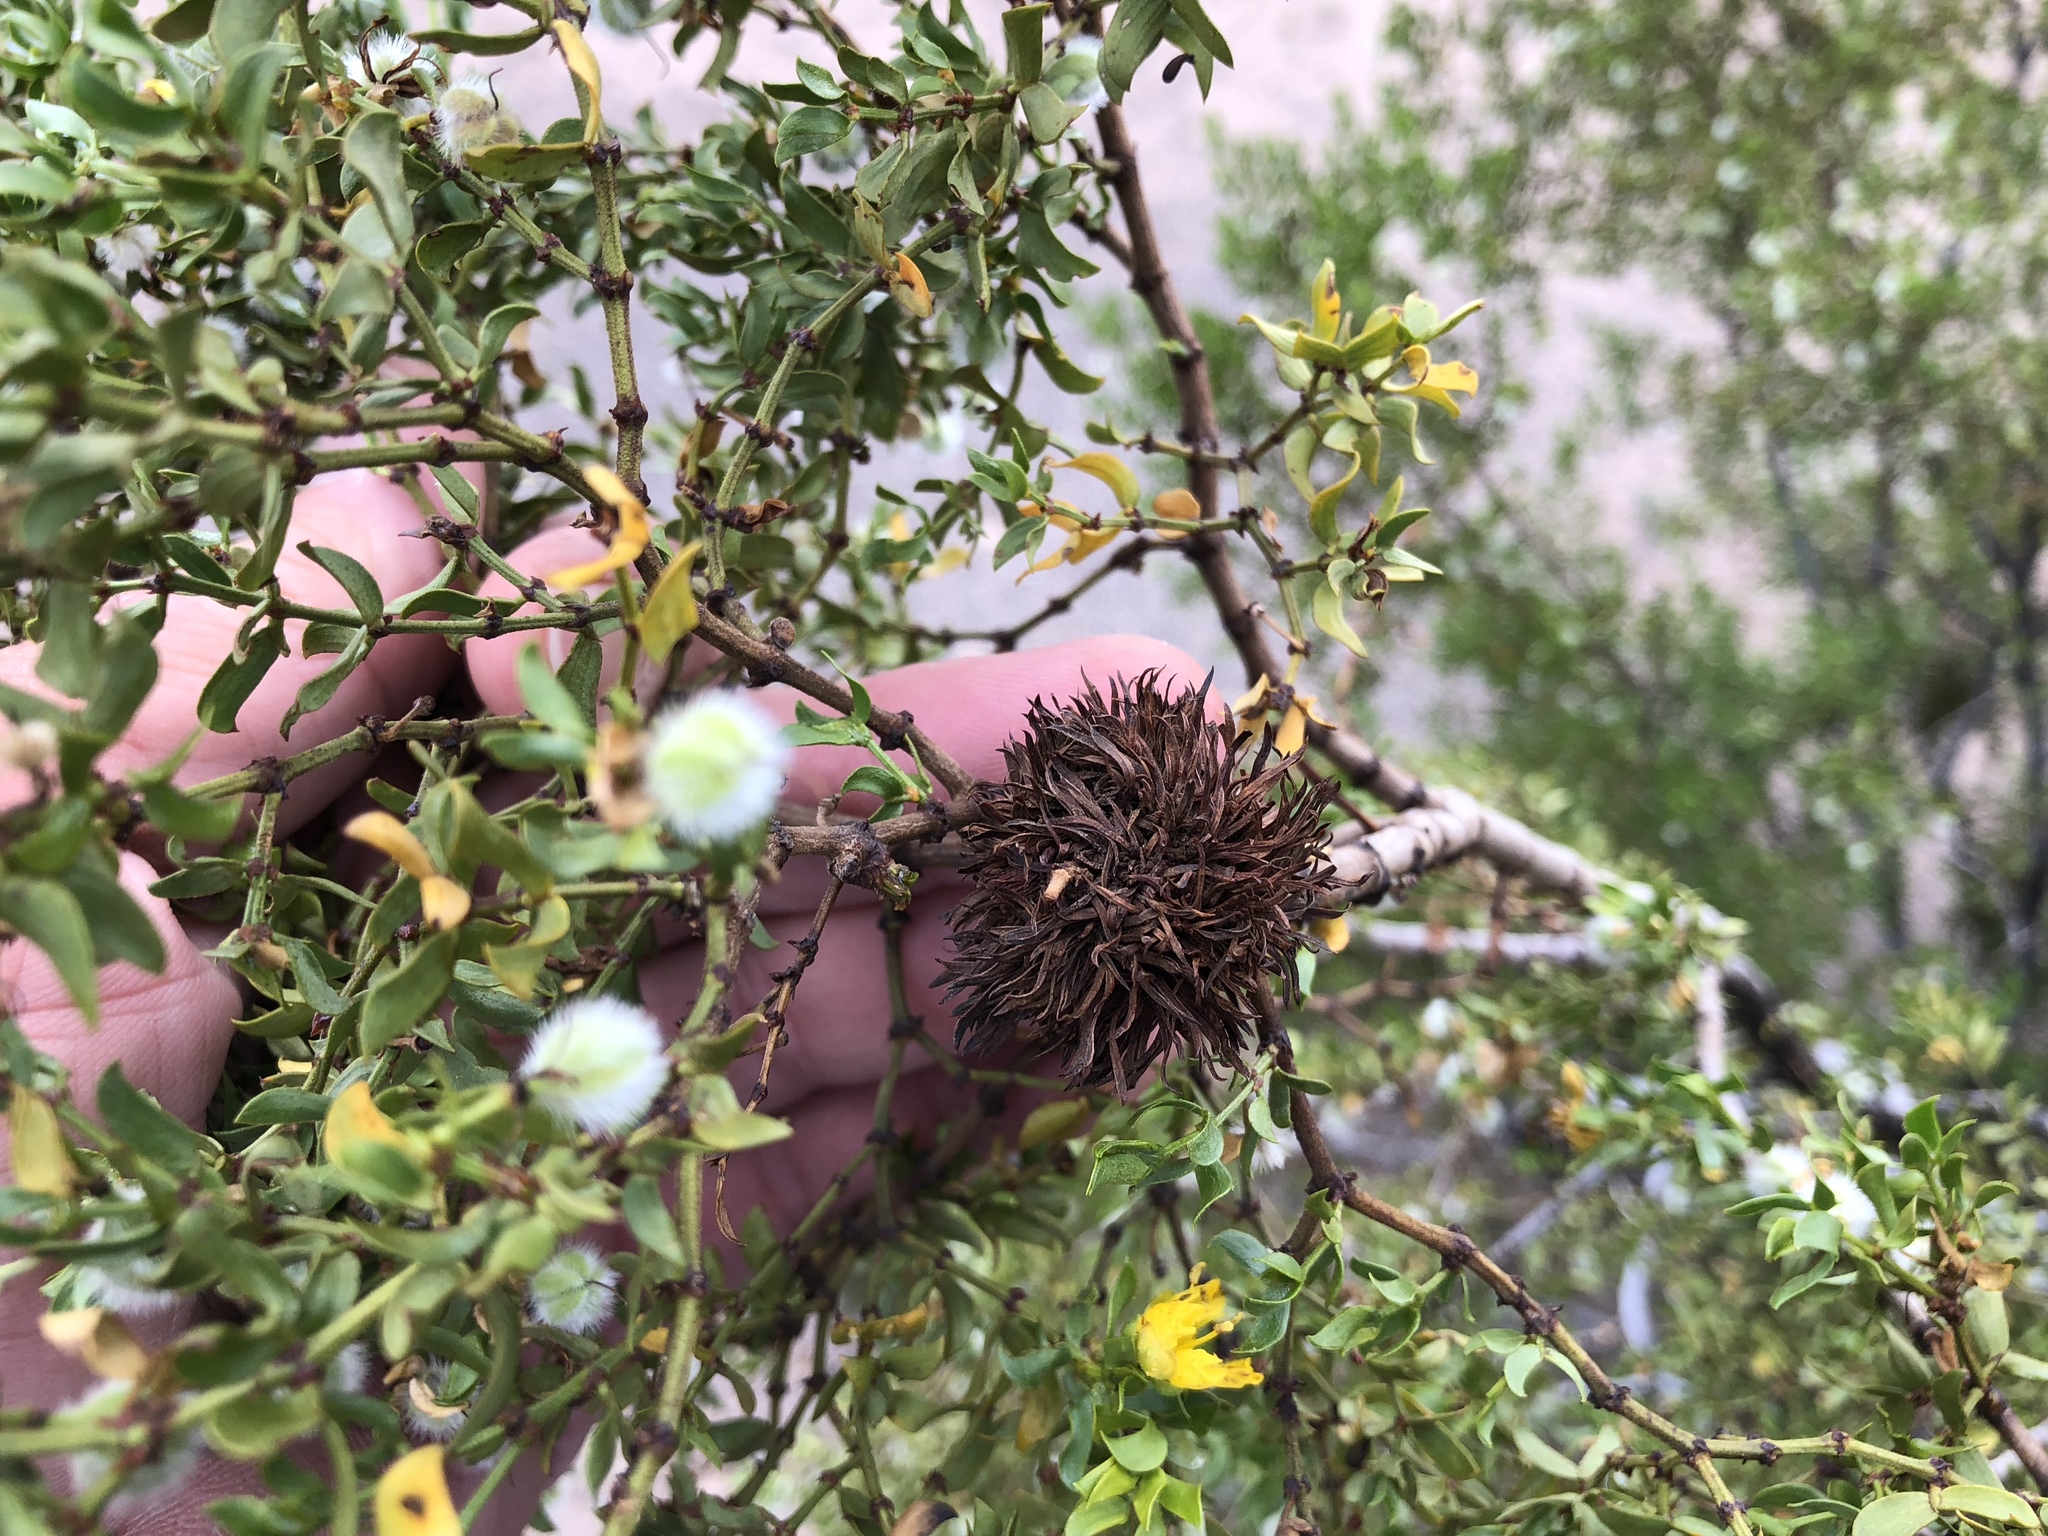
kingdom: Animalia
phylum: Arthropoda
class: Insecta
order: Diptera
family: Cecidomyiidae
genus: Asphondylia
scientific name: Asphondylia auripila
